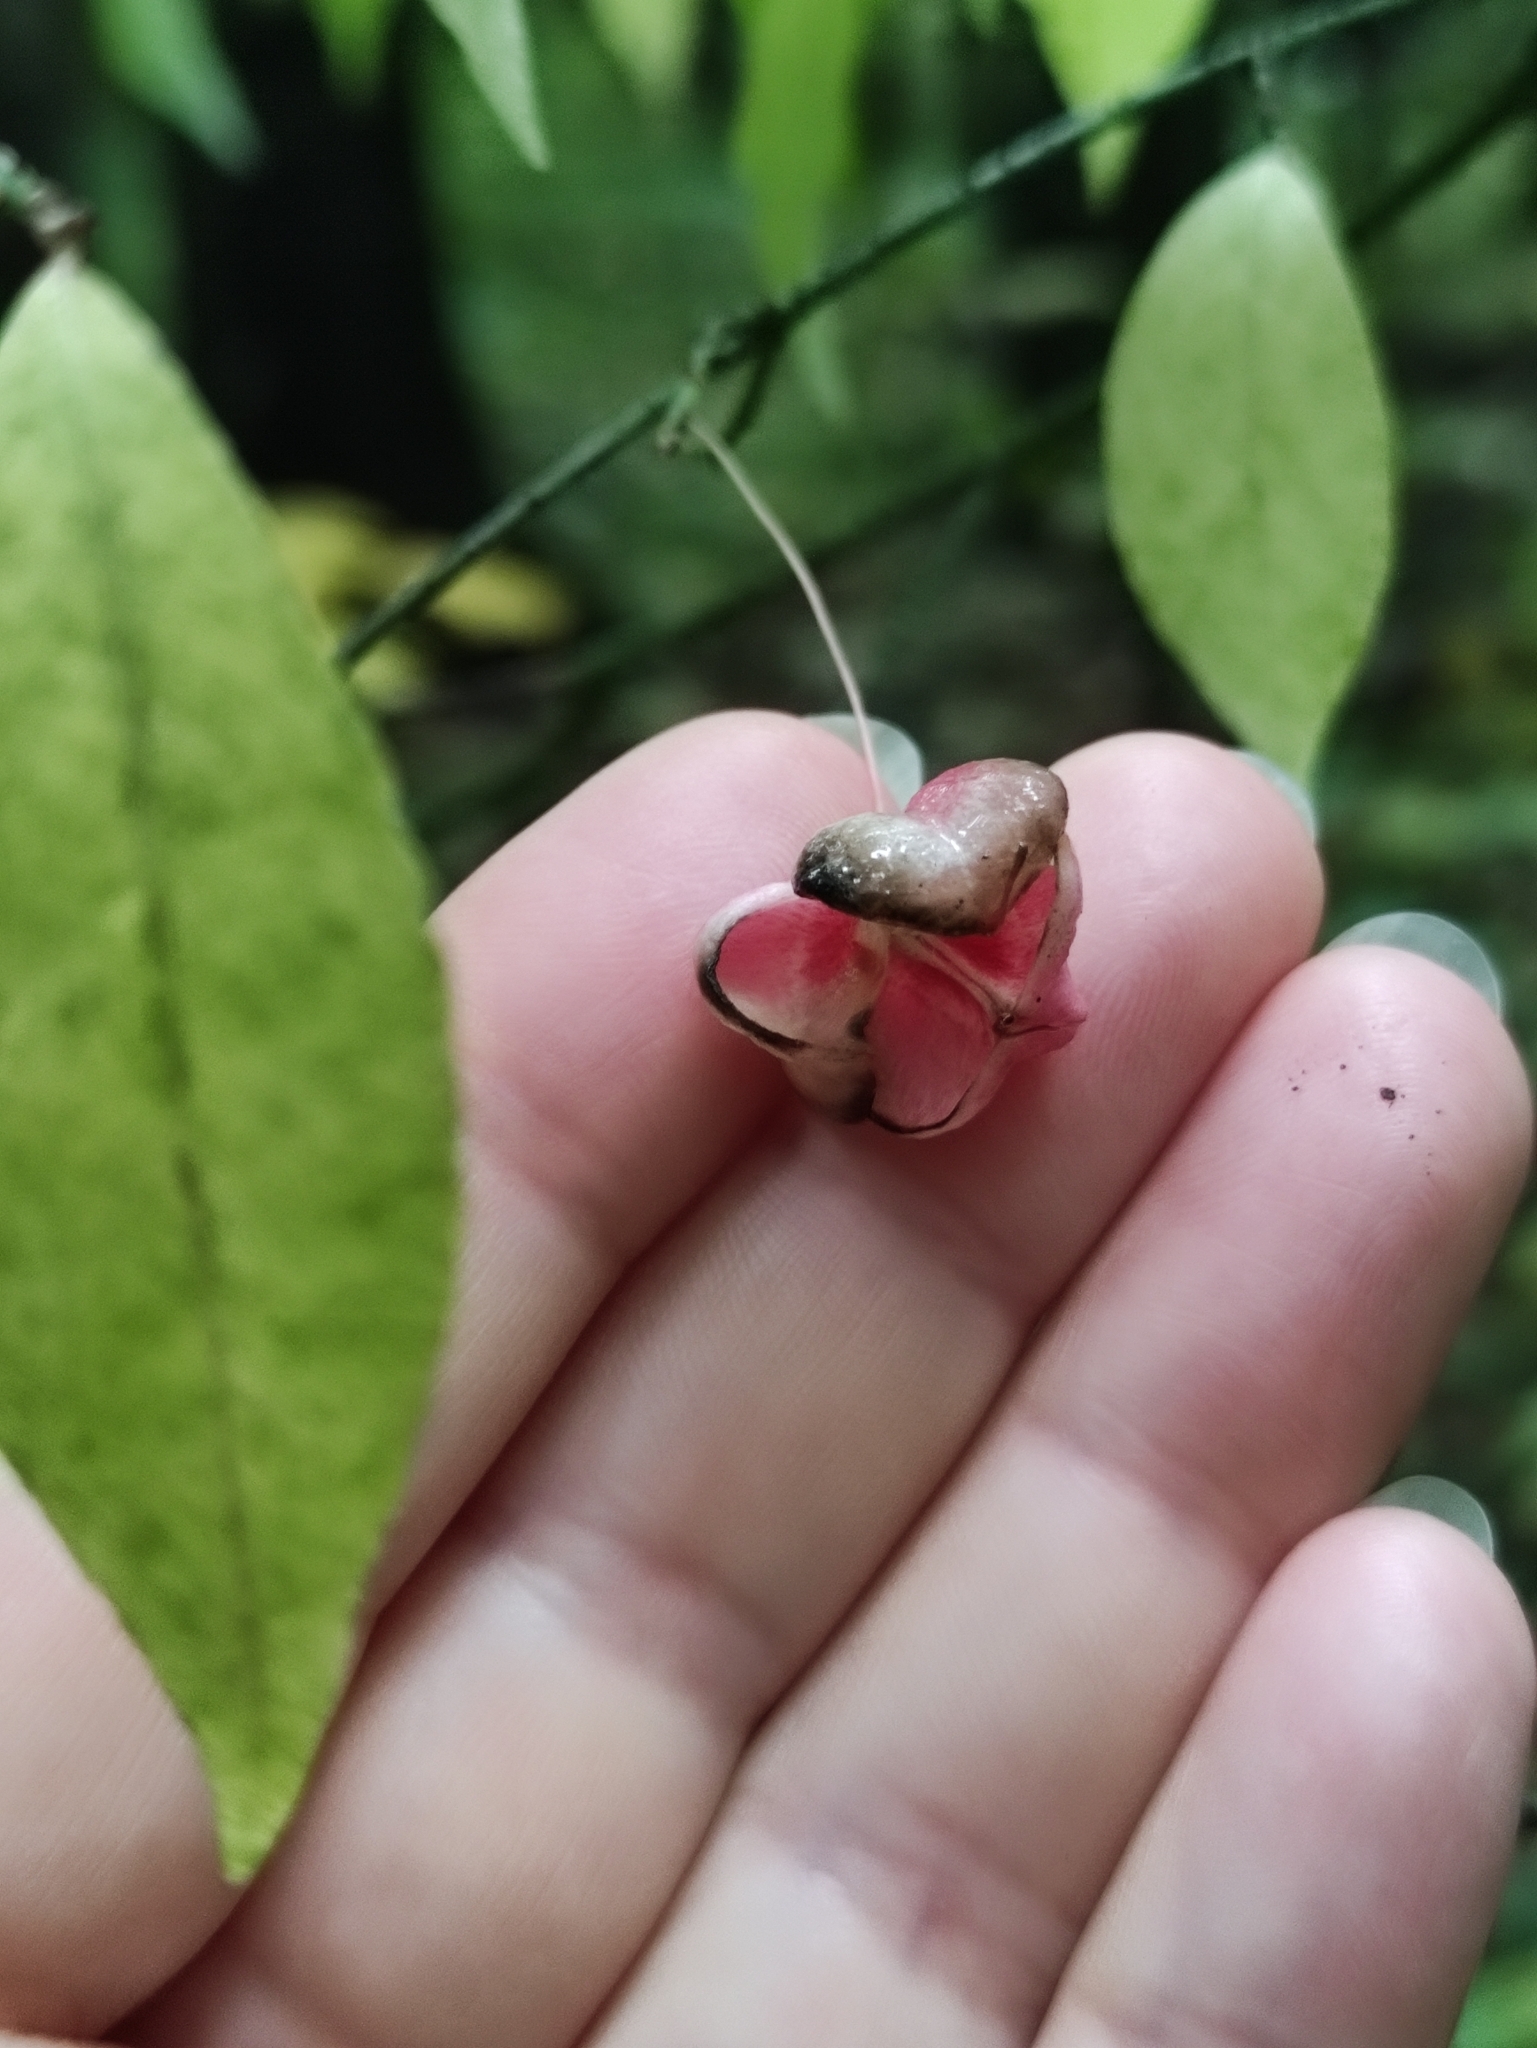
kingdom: Plantae
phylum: Tracheophyta
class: Magnoliopsida
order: Celastrales
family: Celastraceae
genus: Euonymus
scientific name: Euonymus verrucosus
